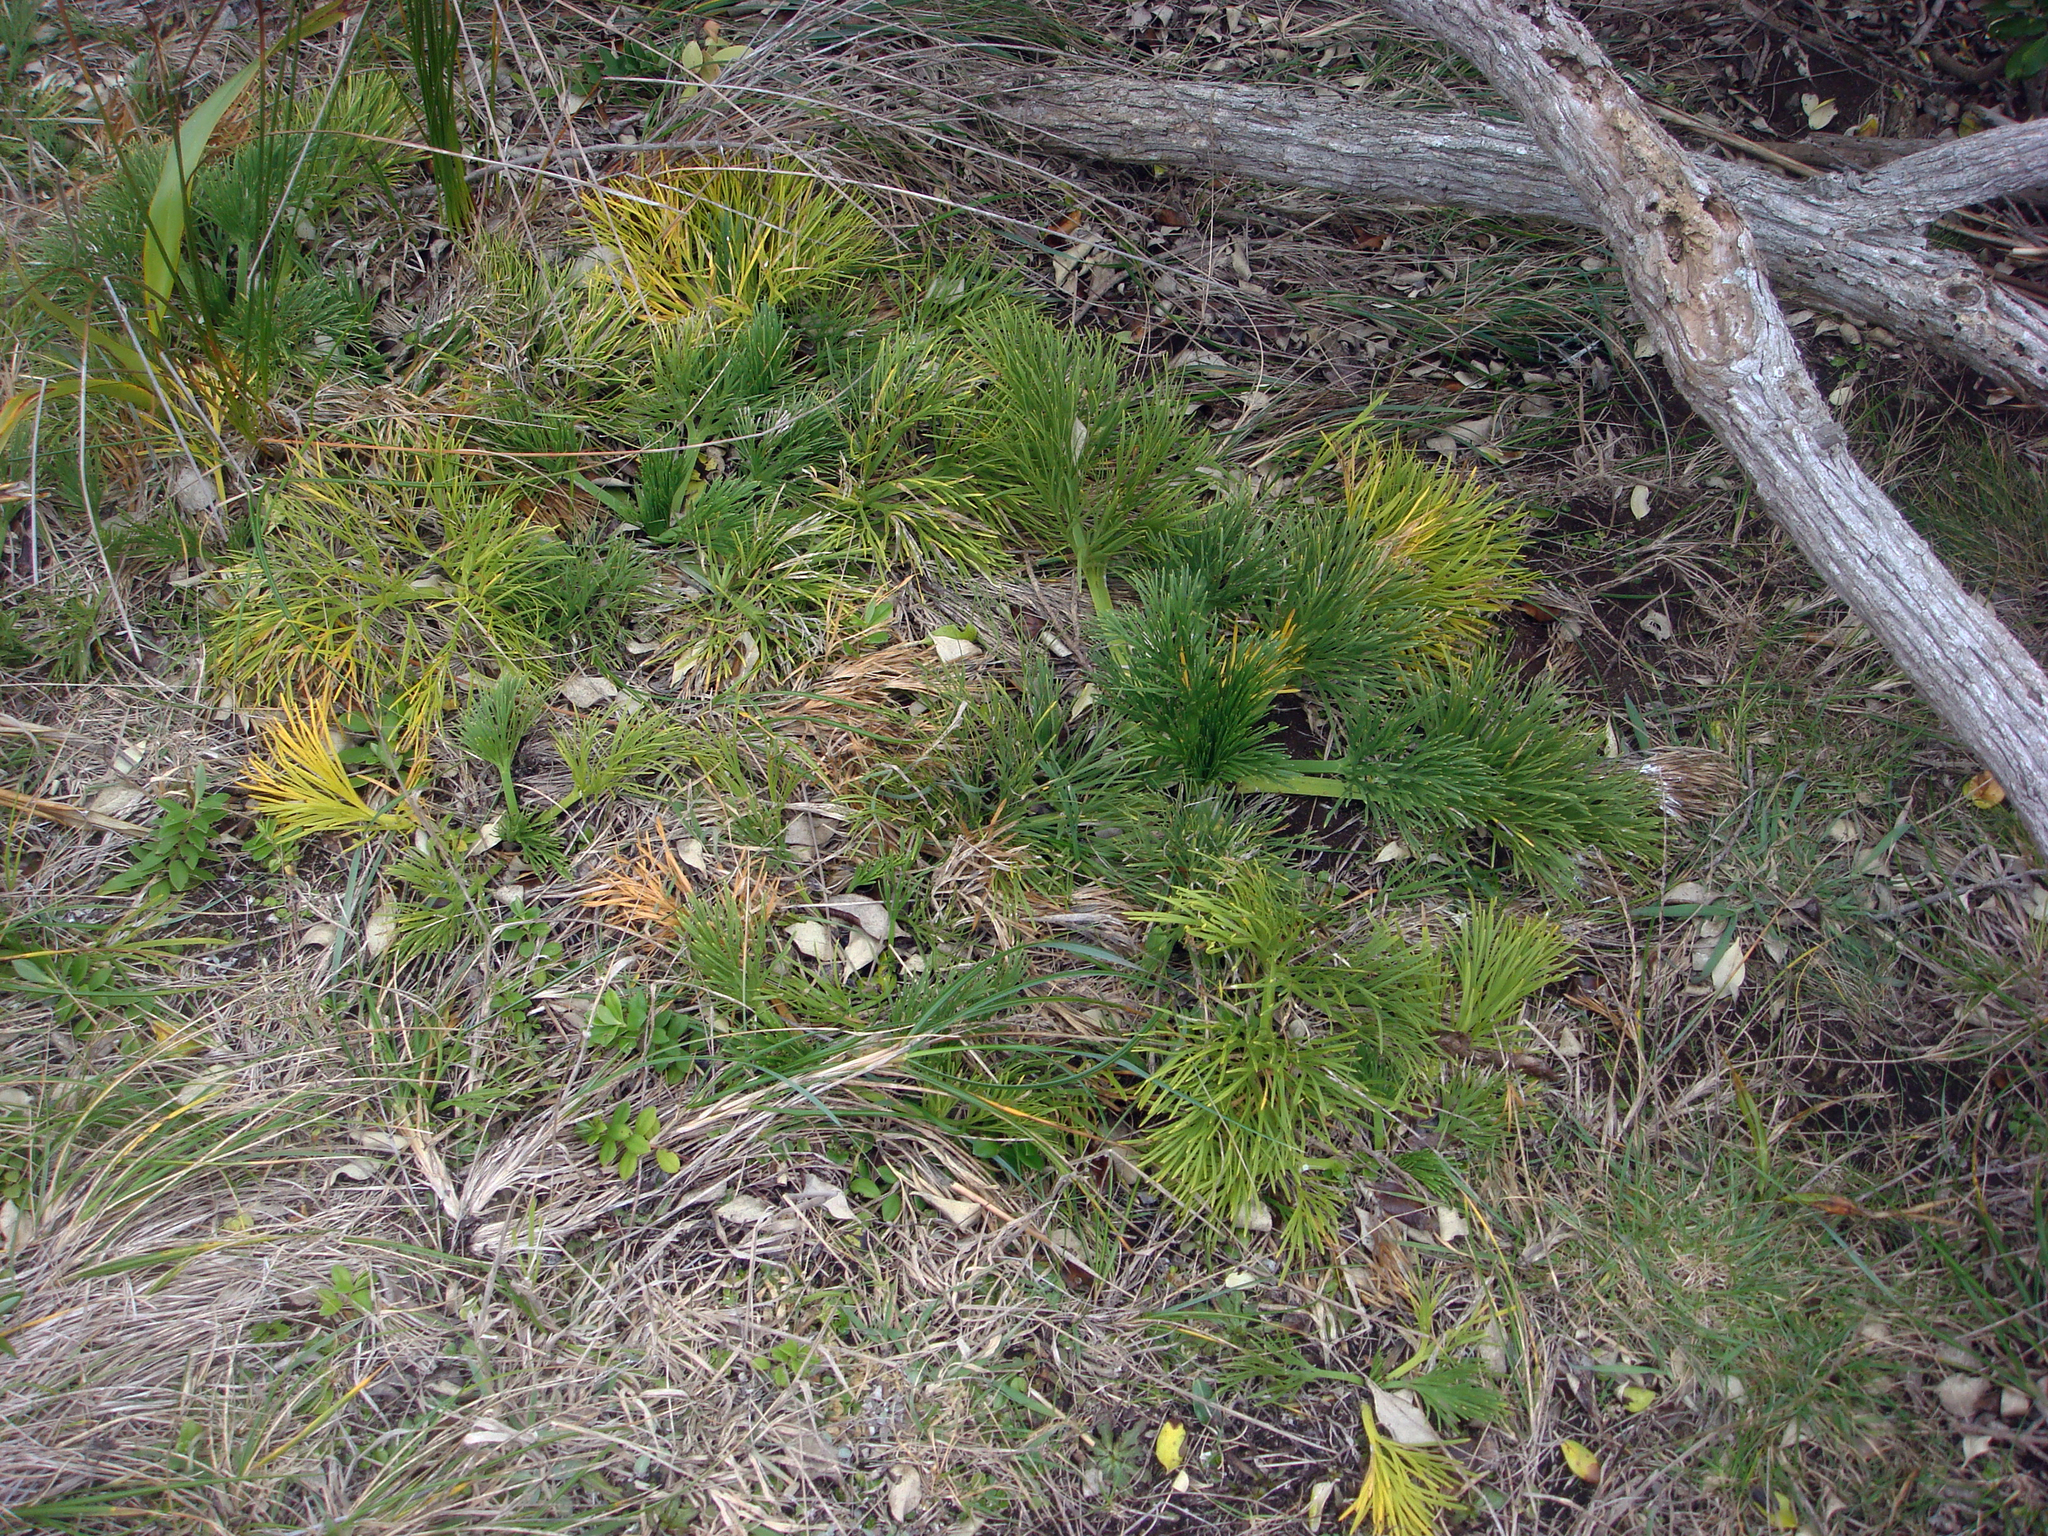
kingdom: Plantae
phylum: Tracheophyta
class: Magnoliopsida
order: Apiales
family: Apiaceae
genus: Aciphylla
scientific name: Aciphylla dieffenbachii
